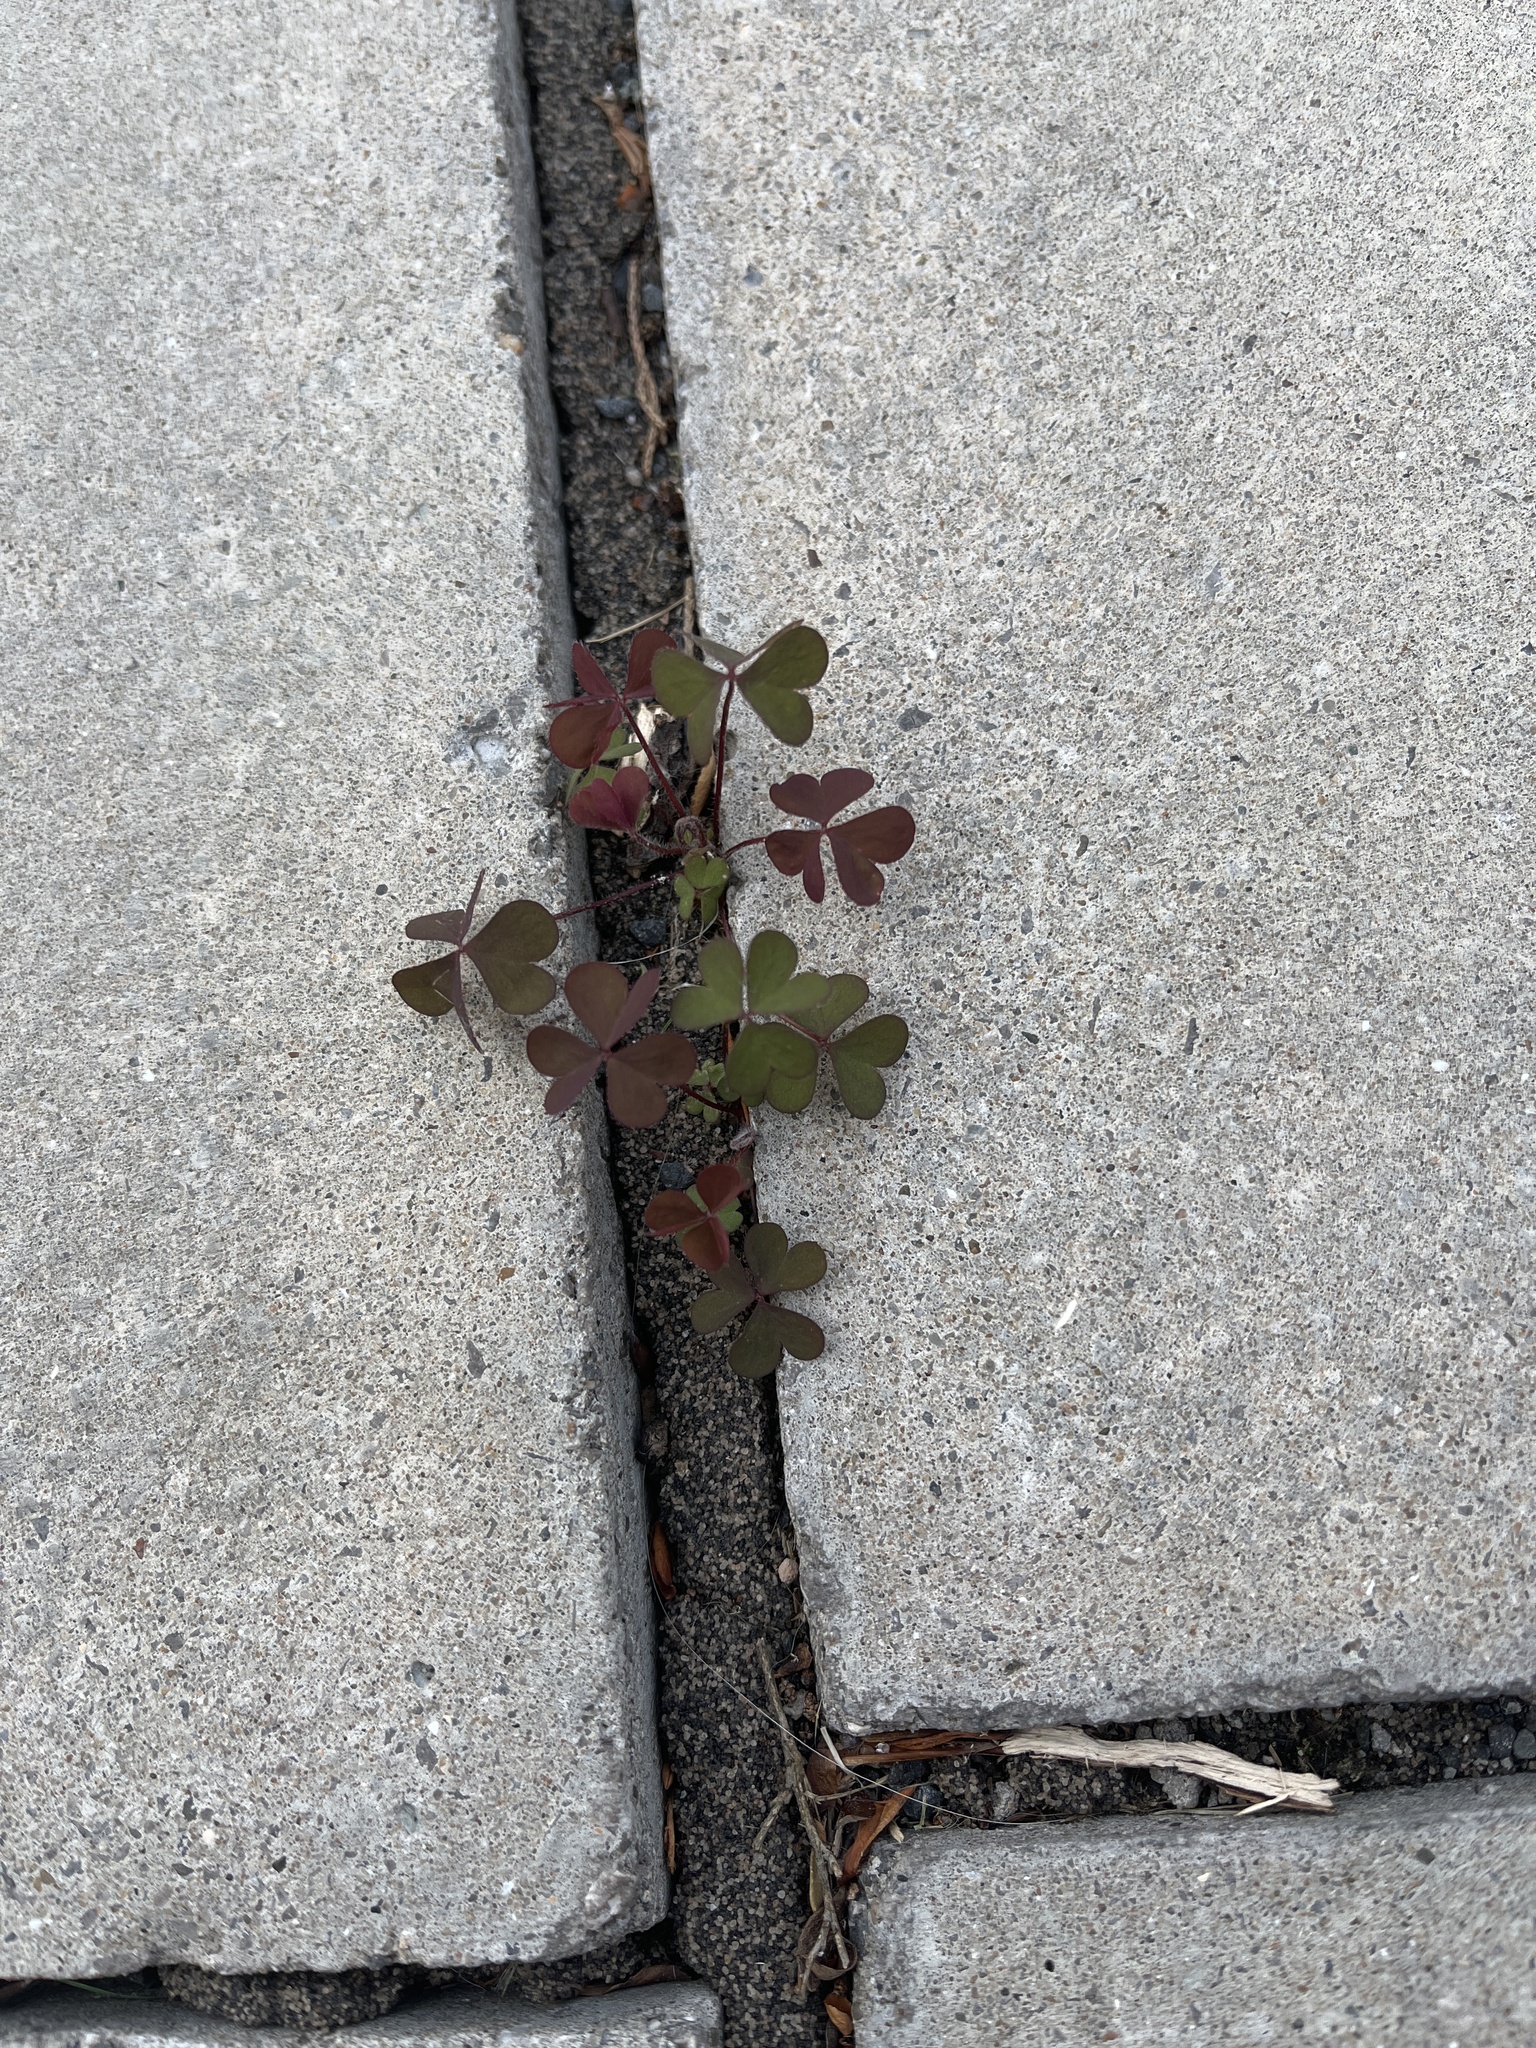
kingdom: Plantae
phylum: Tracheophyta
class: Magnoliopsida
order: Oxalidales
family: Oxalidaceae
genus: Oxalis
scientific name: Oxalis corniculata
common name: Procumbent yellow-sorrel
